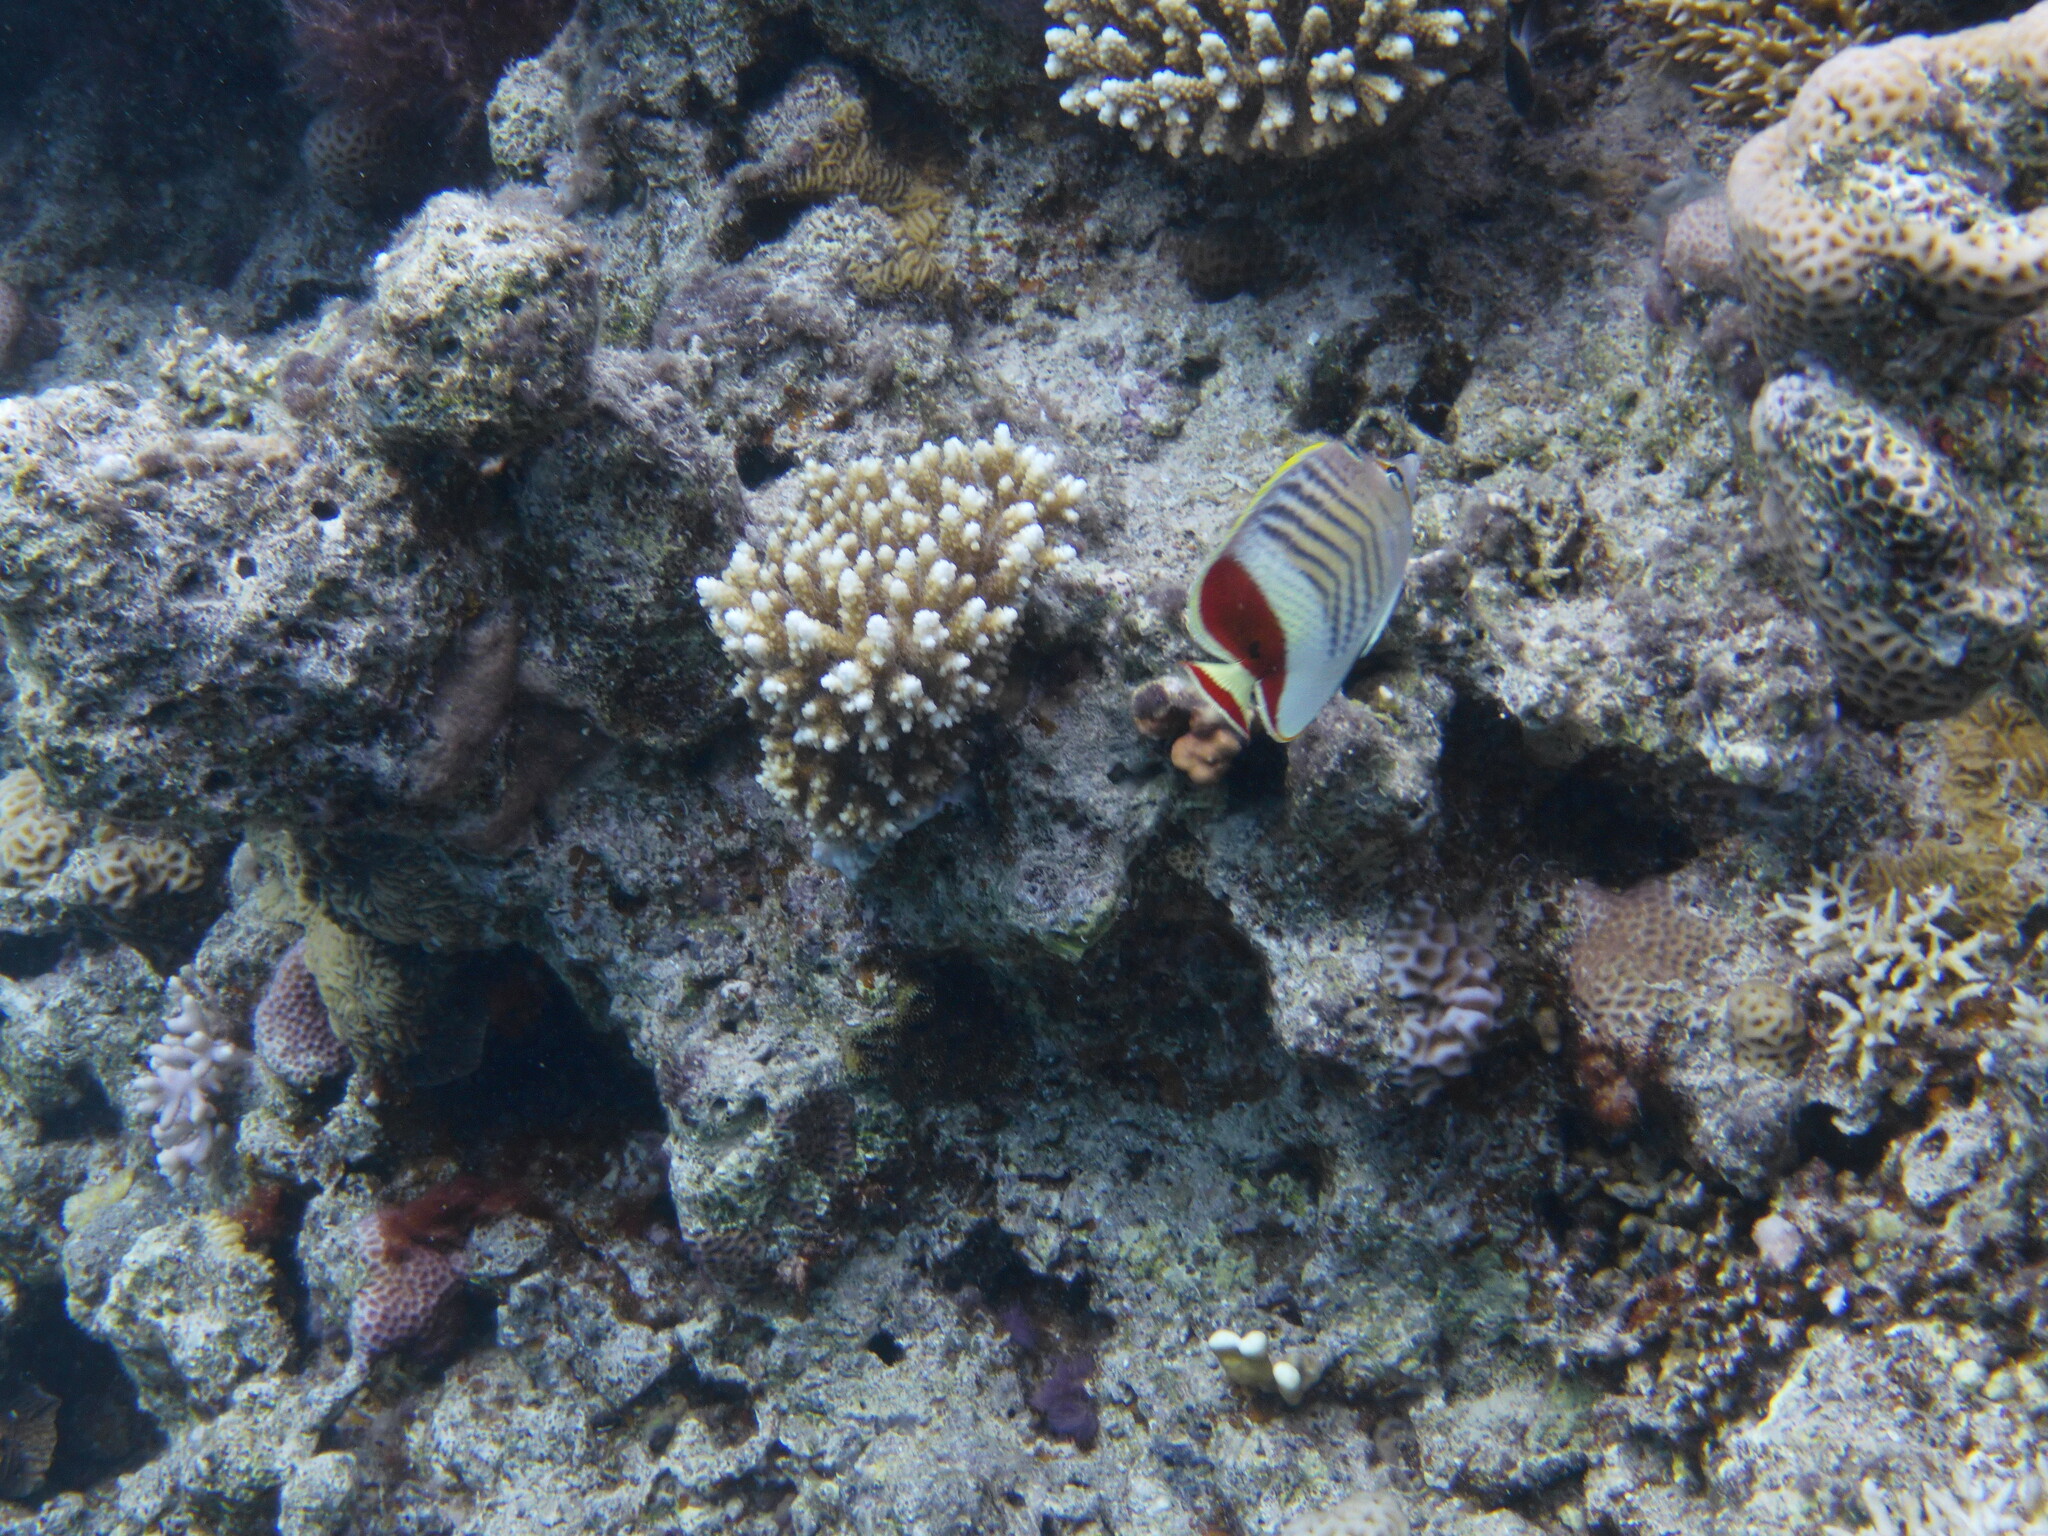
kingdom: Animalia
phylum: Chordata
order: Perciformes
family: Chaetodontidae
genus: Chaetodon
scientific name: Chaetodon paucifasciatus
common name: Crown butterflyfish
